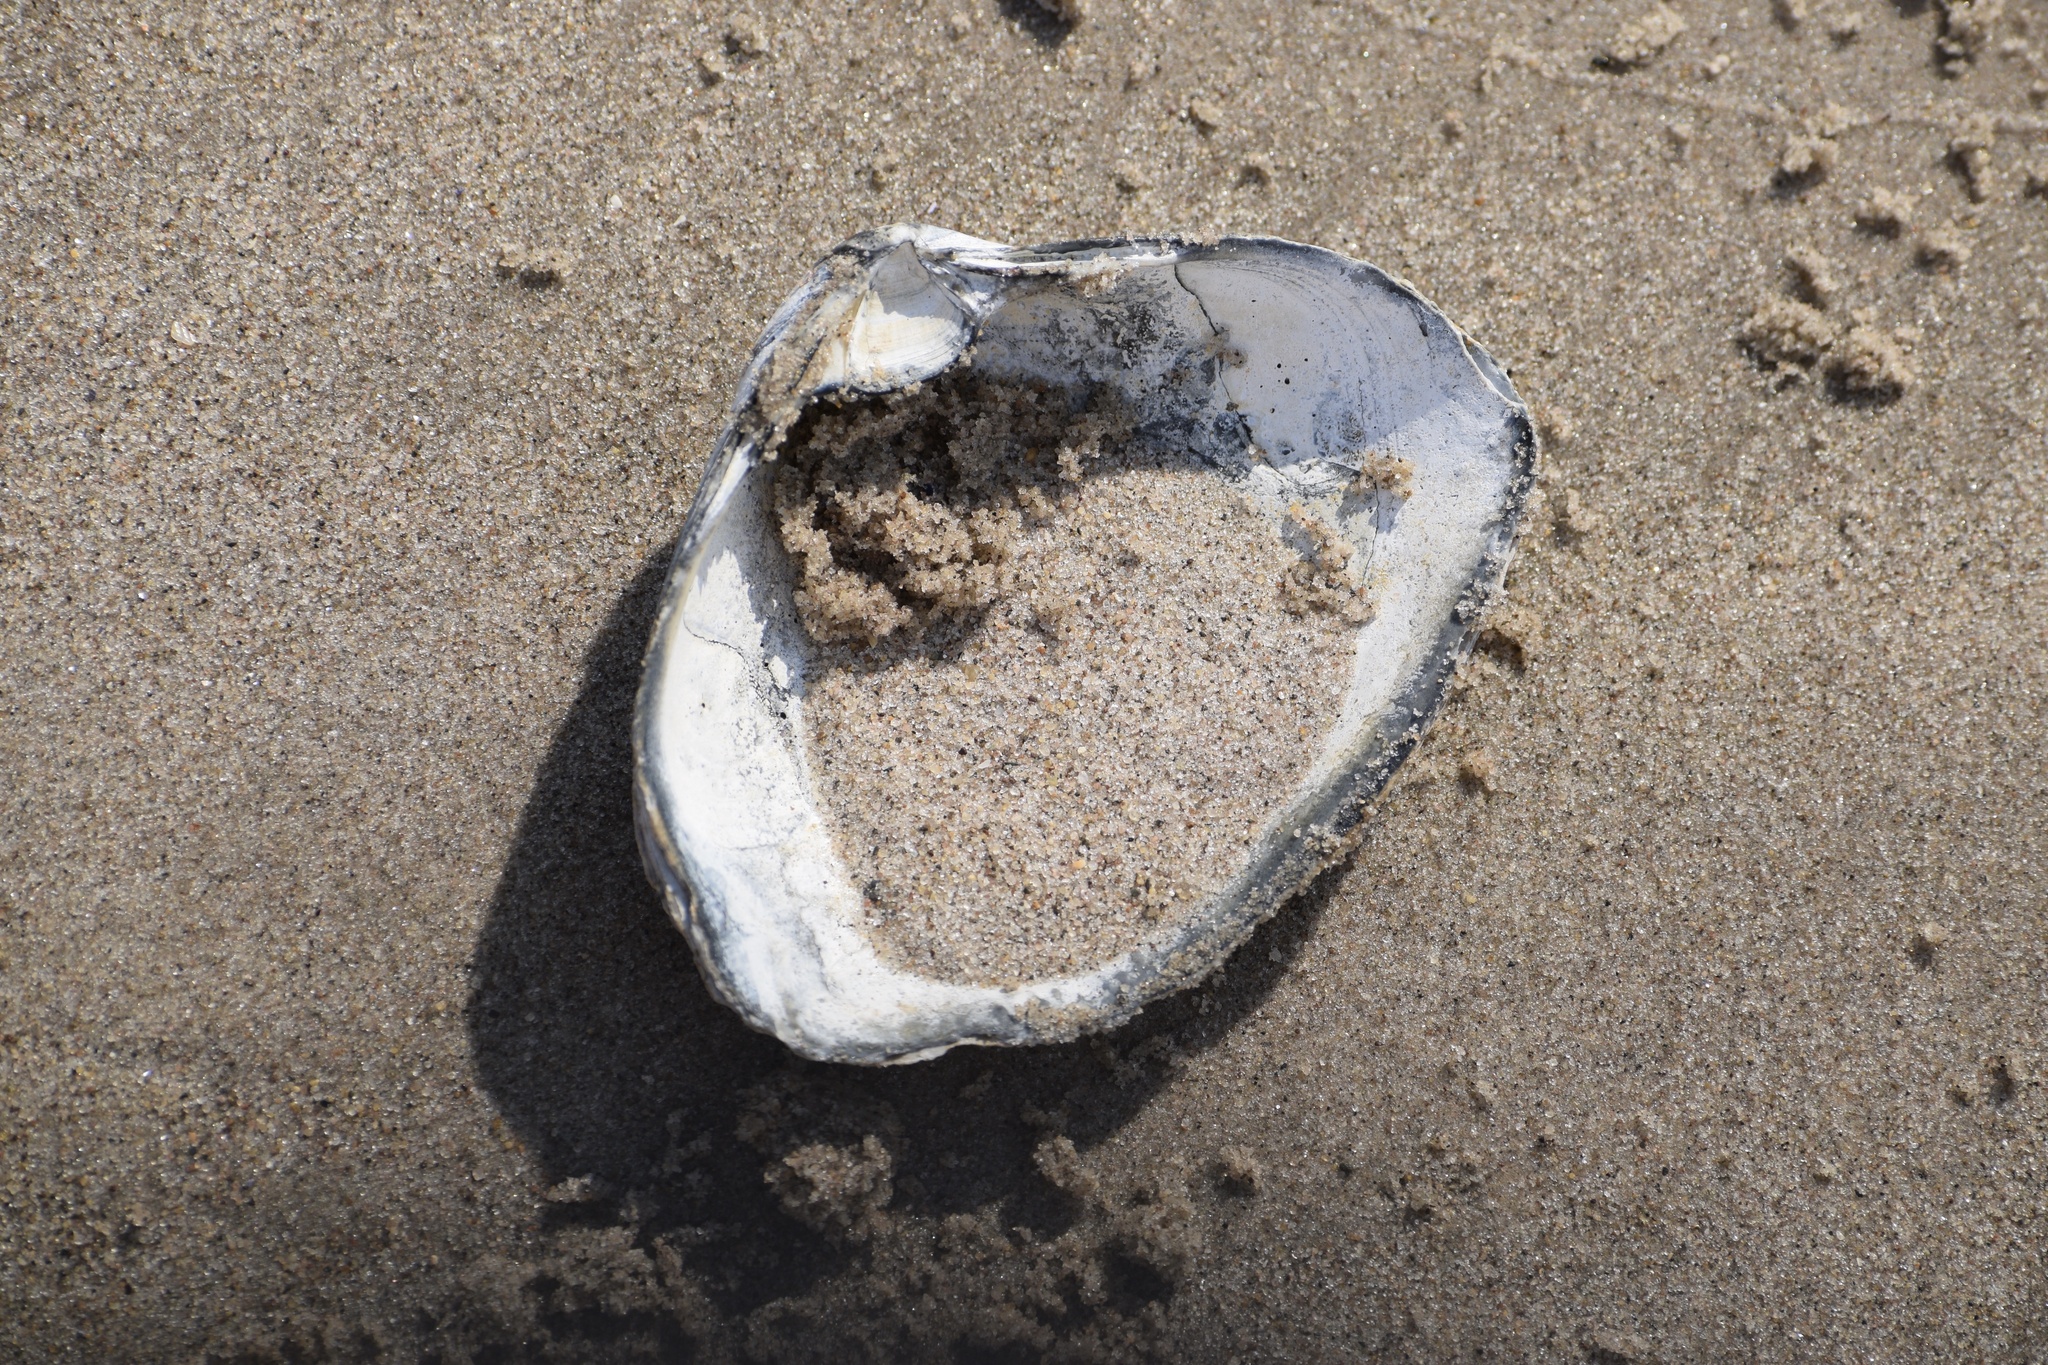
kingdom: Animalia
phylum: Mollusca
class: Bivalvia
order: Venerida
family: Mactridae
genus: Spisula
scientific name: Spisula solidissima
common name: Atlantic surf clam
